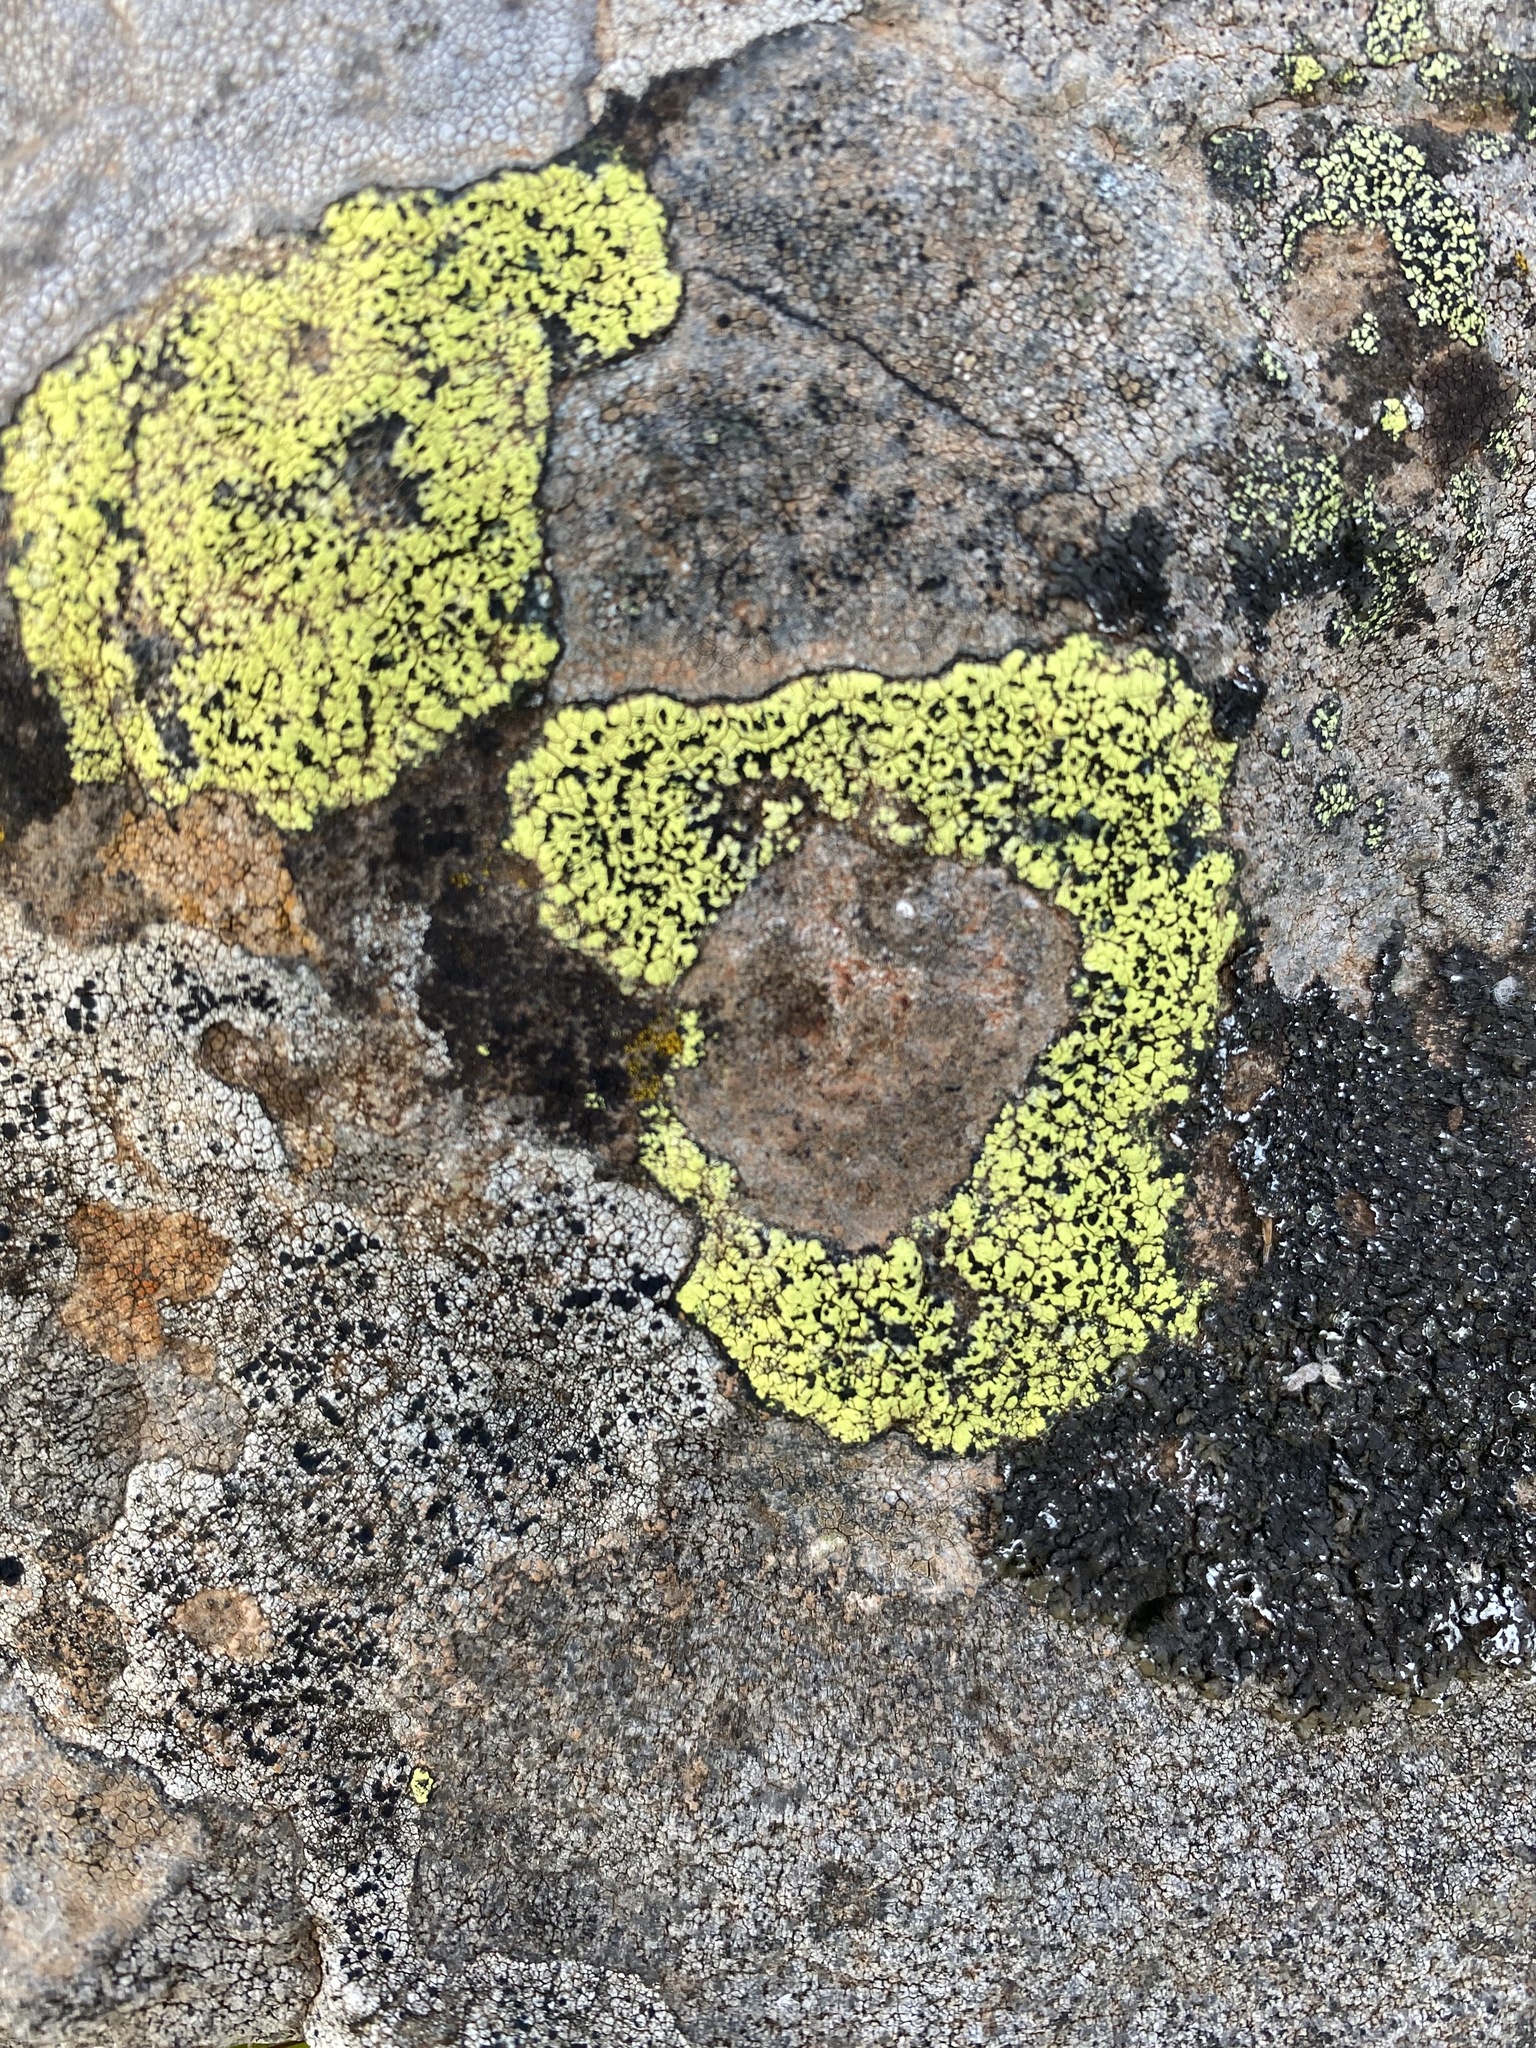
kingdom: Fungi
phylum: Ascomycota
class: Lecanoromycetes
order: Rhizocarpales
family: Rhizocarpaceae
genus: Rhizocarpon
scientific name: Rhizocarpon geographicum
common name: Yellow map lichen
